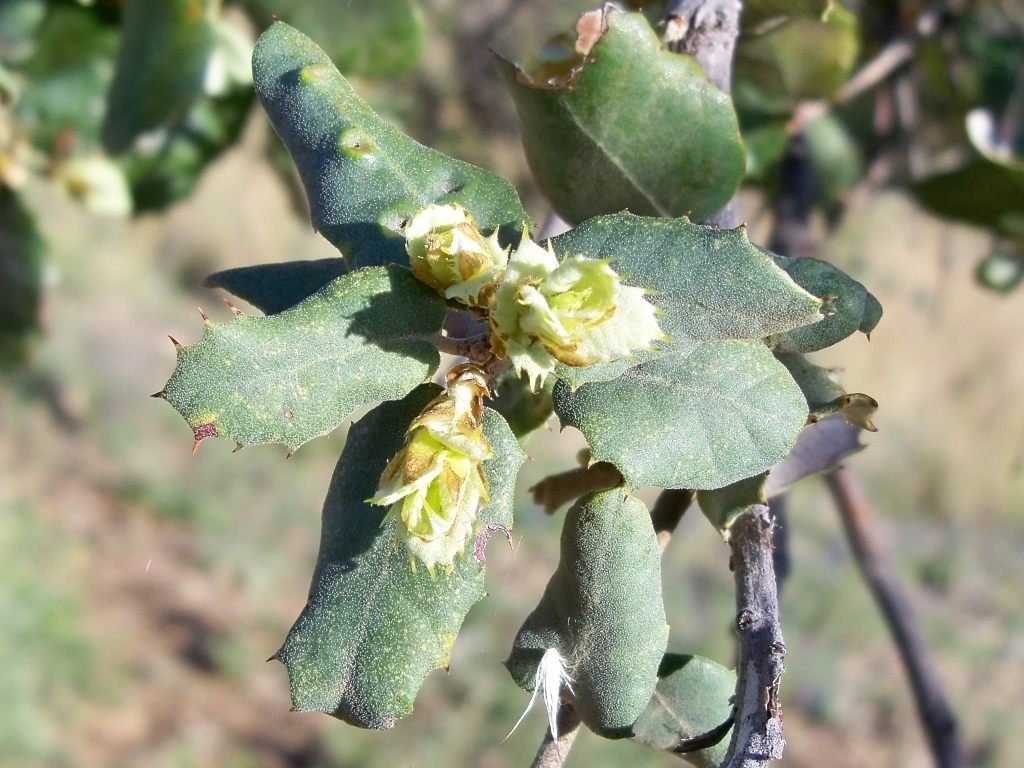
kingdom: Plantae
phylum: Tracheophyta
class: Magnoliopsida
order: Fagales
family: Fagaceae
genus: Quercus
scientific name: Quercus rotundifolia
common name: Holm oak
